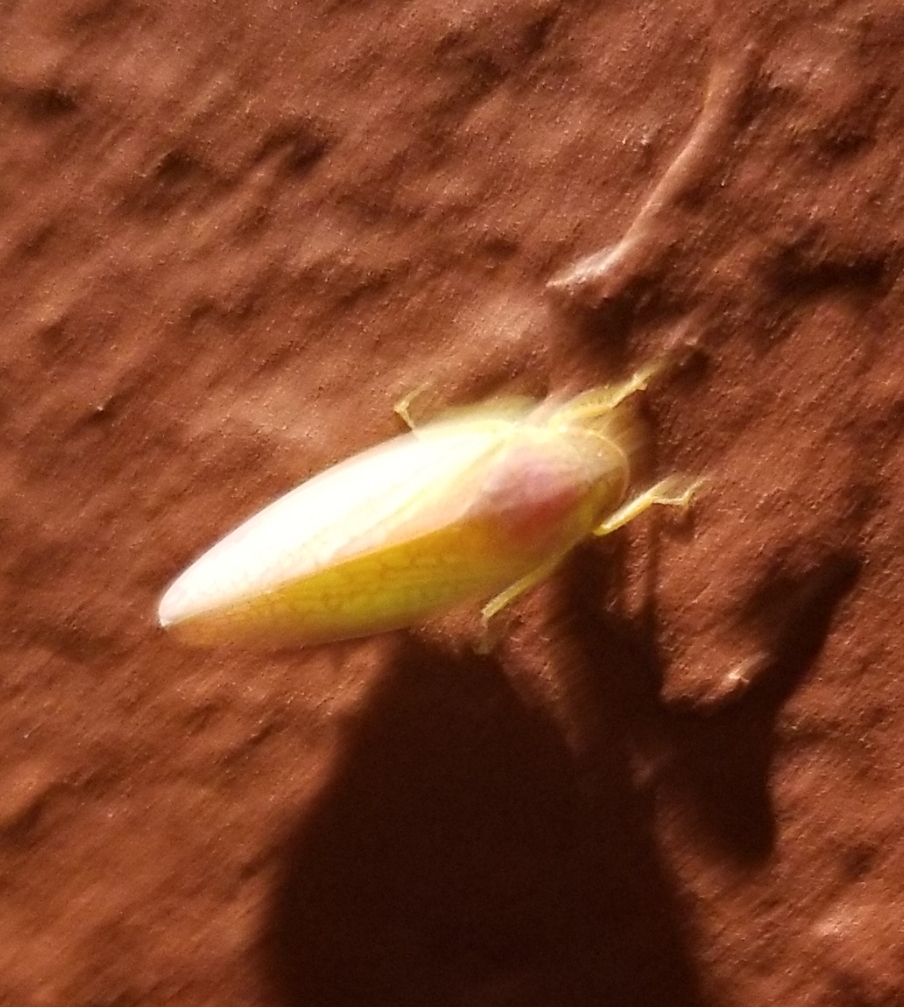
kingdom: Animalia
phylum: Arthropoda
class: Insecta
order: Hemiptera
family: Cicadellidae
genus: Gyponana
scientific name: Gyponana octolineata
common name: Eight-lined leafhopper
